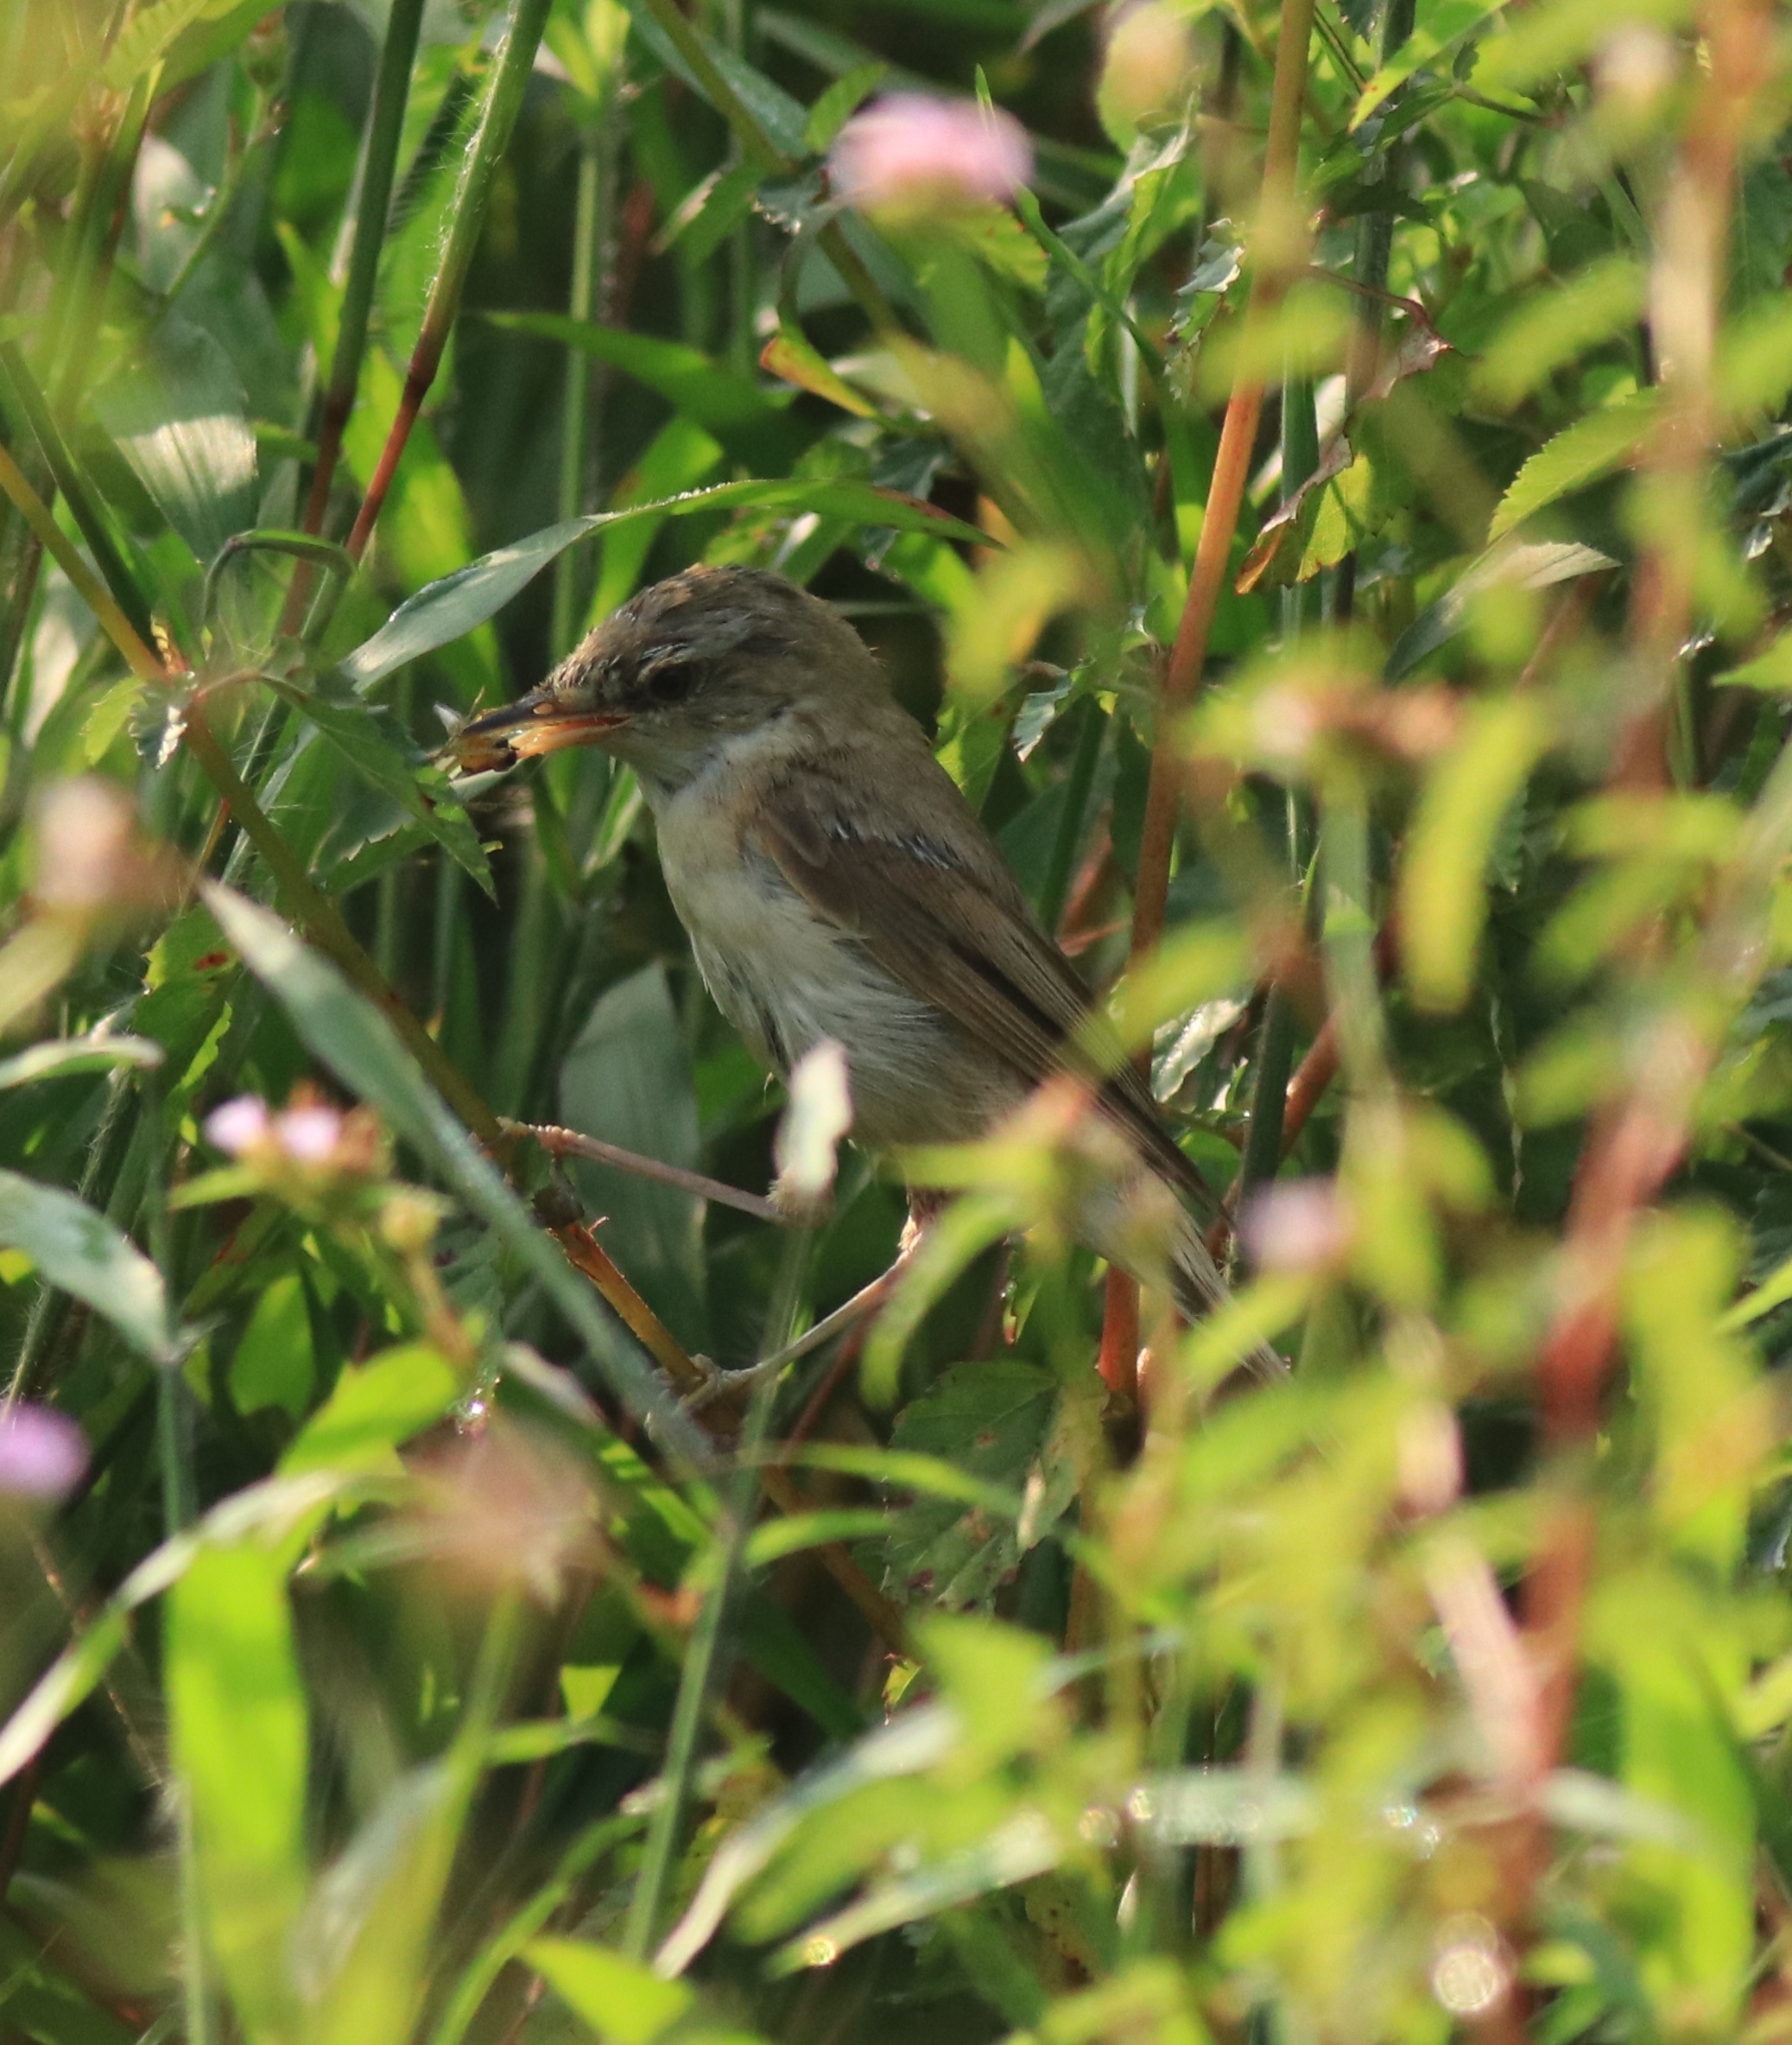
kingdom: Animalia
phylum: Chordata
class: Aves
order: Passeriformes
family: Acrocephalidae
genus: Acrocephalus
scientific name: Acrocephalus agricola
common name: Paddyfield warbler
